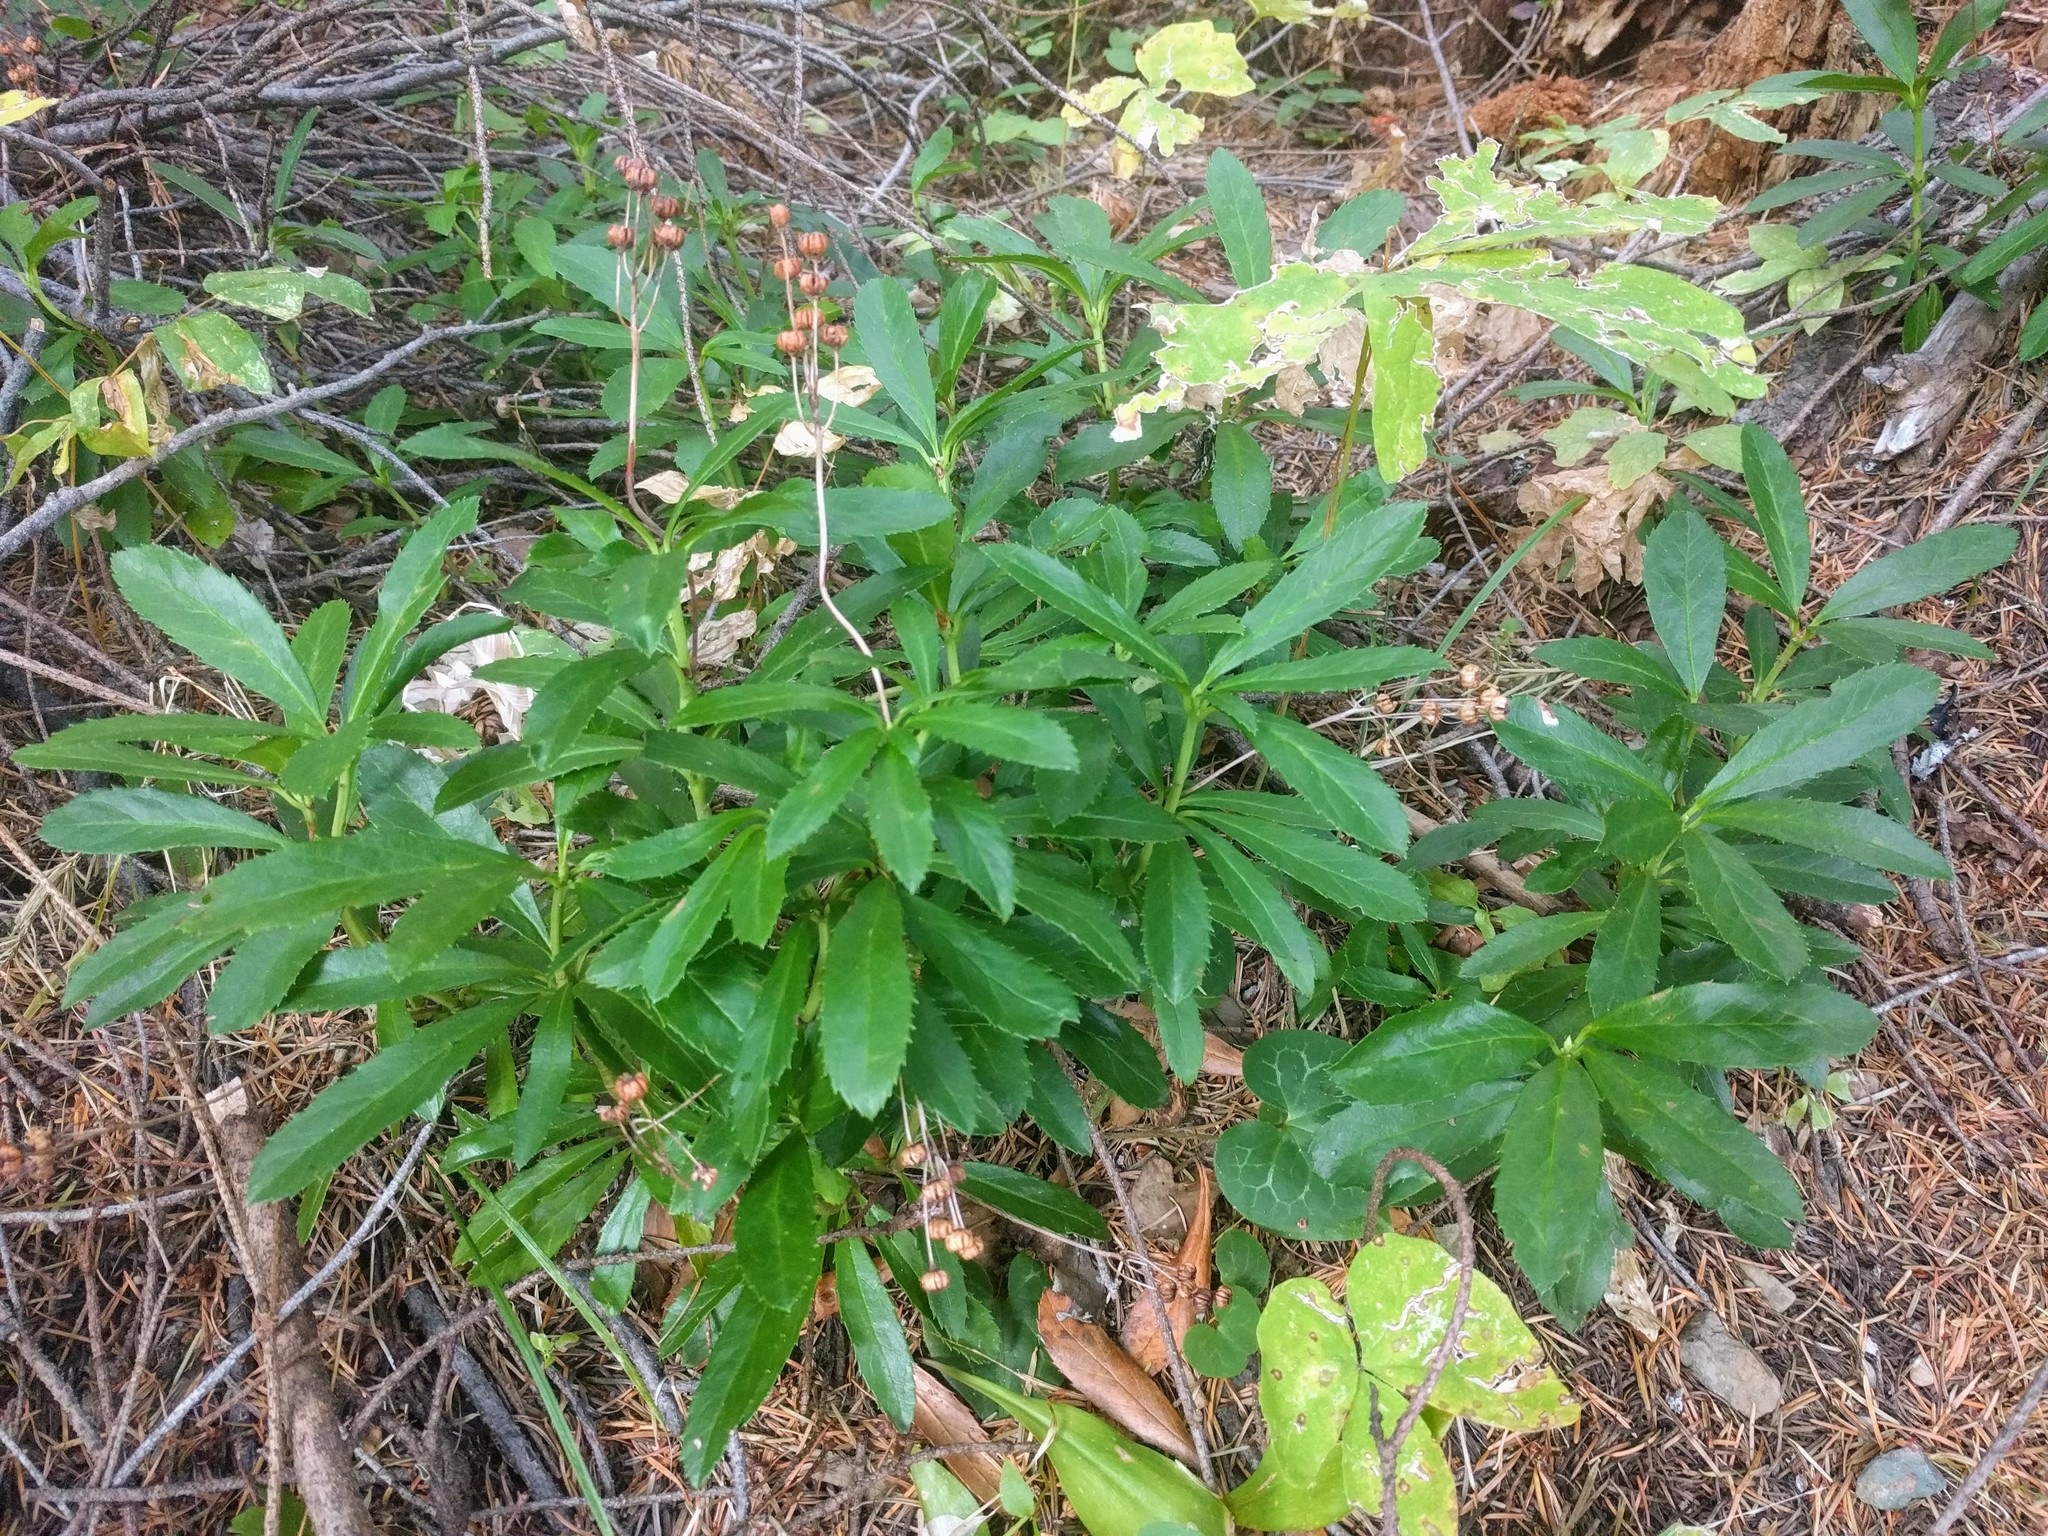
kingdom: Plantae
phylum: Tracheophyta
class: Magnoliopsida
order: Ericales
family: Ericaceae
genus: Chimaphila
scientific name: Chimaphila umbellata
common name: Pipsissewa
